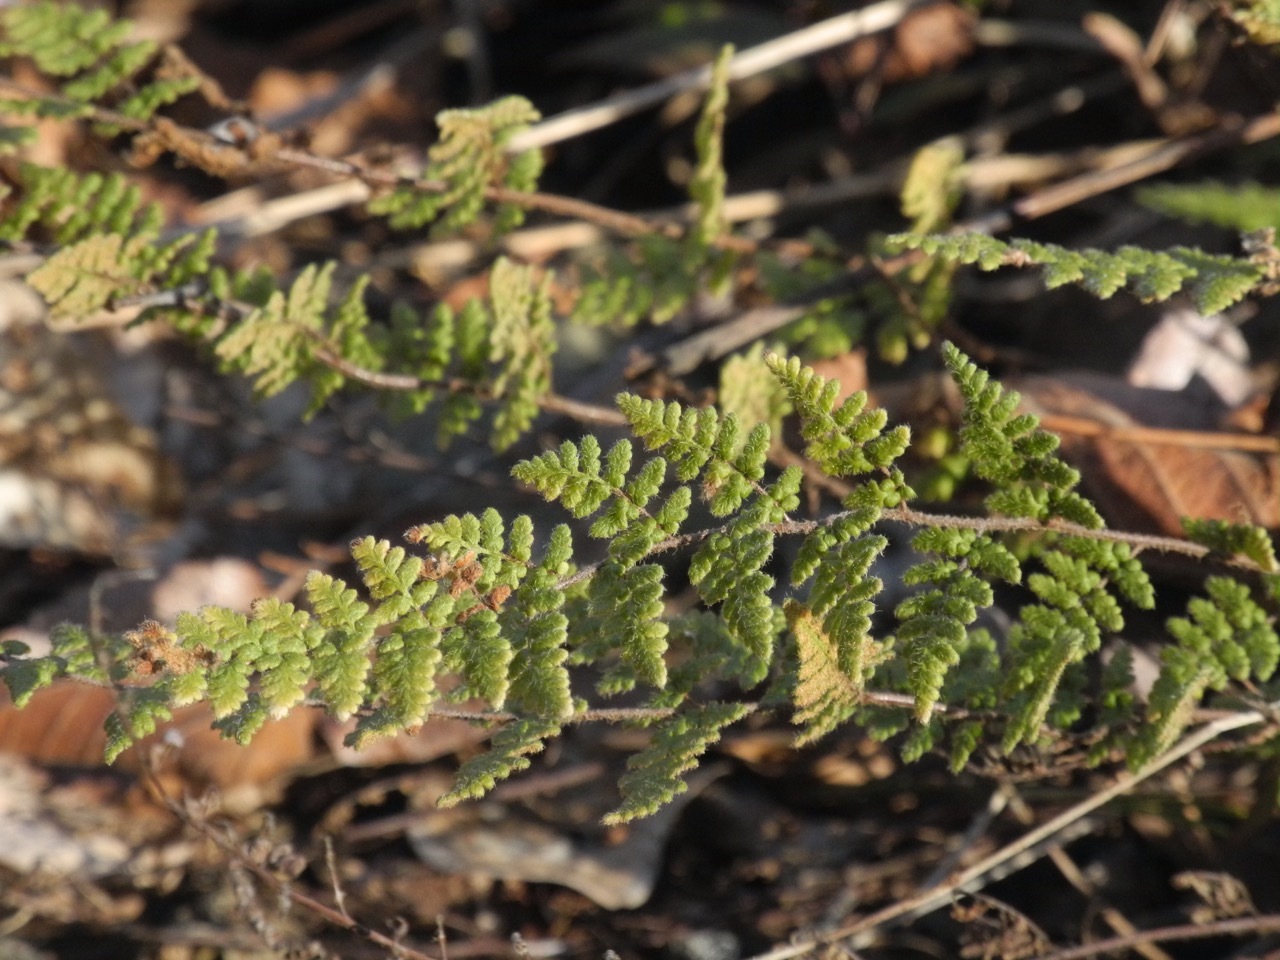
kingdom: Plantae
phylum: Tracheophyta
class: Polypodiopsida
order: Polypodiales
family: Pteridaceae
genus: Myriopteris
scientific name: Myriopteris lanosa
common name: Hairy lip fern
